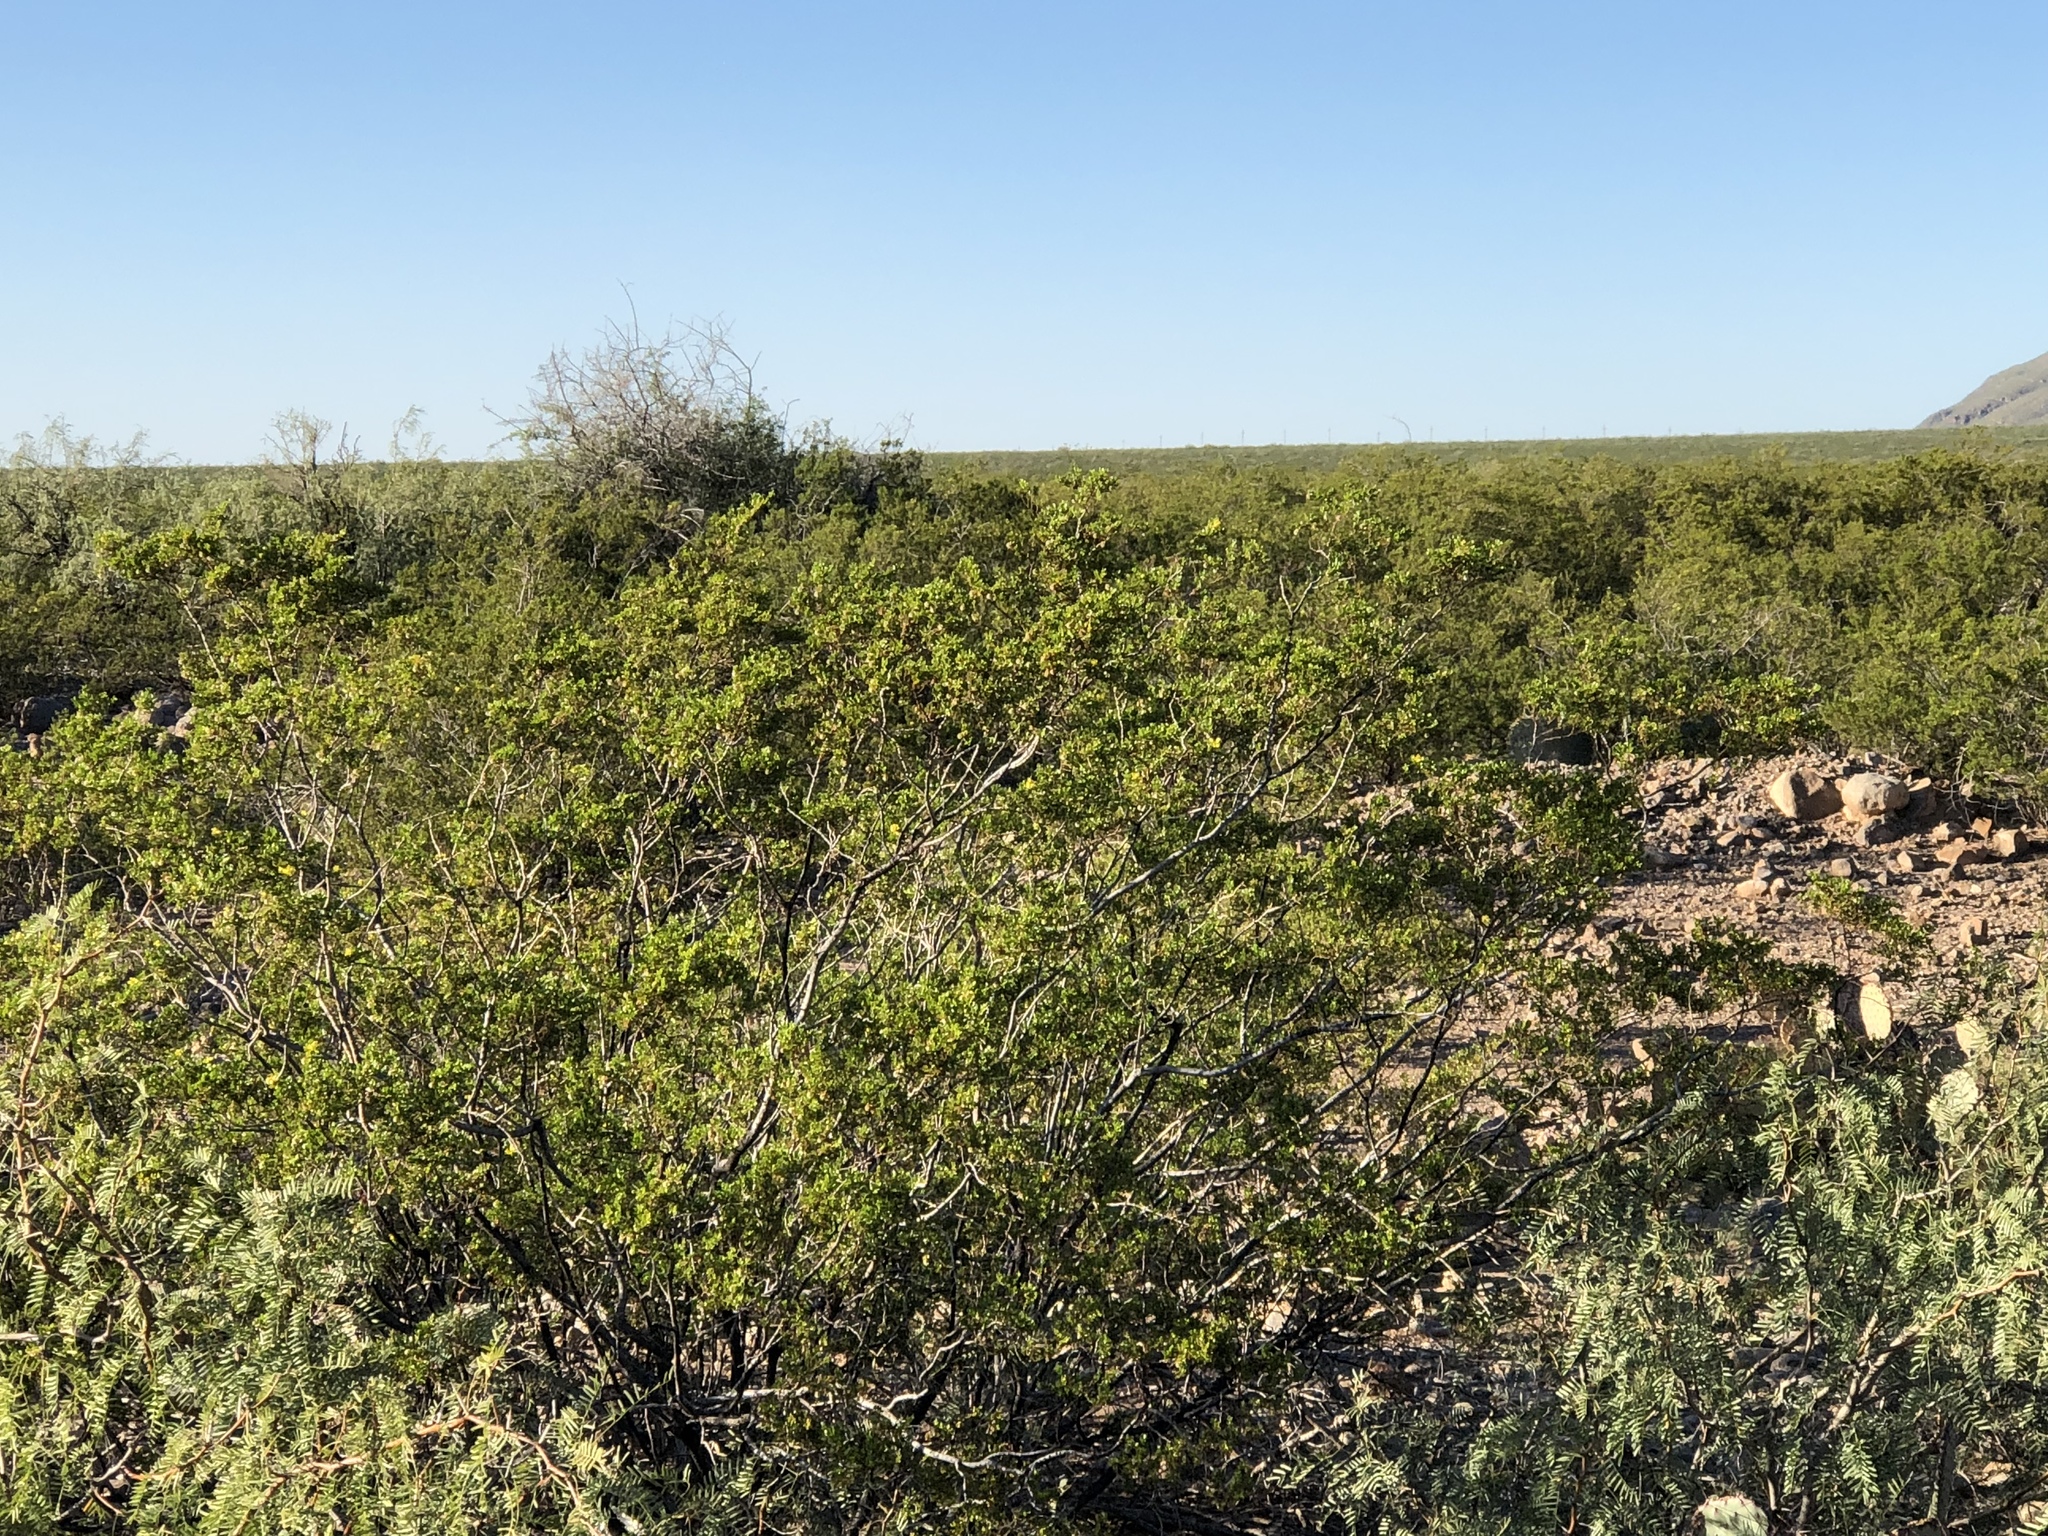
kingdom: Plantae
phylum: Tracheophyta
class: Magnoliopsida
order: Zygophyllales
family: Zygophyllaceae
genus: Larrea
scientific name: Larrea tridentata
